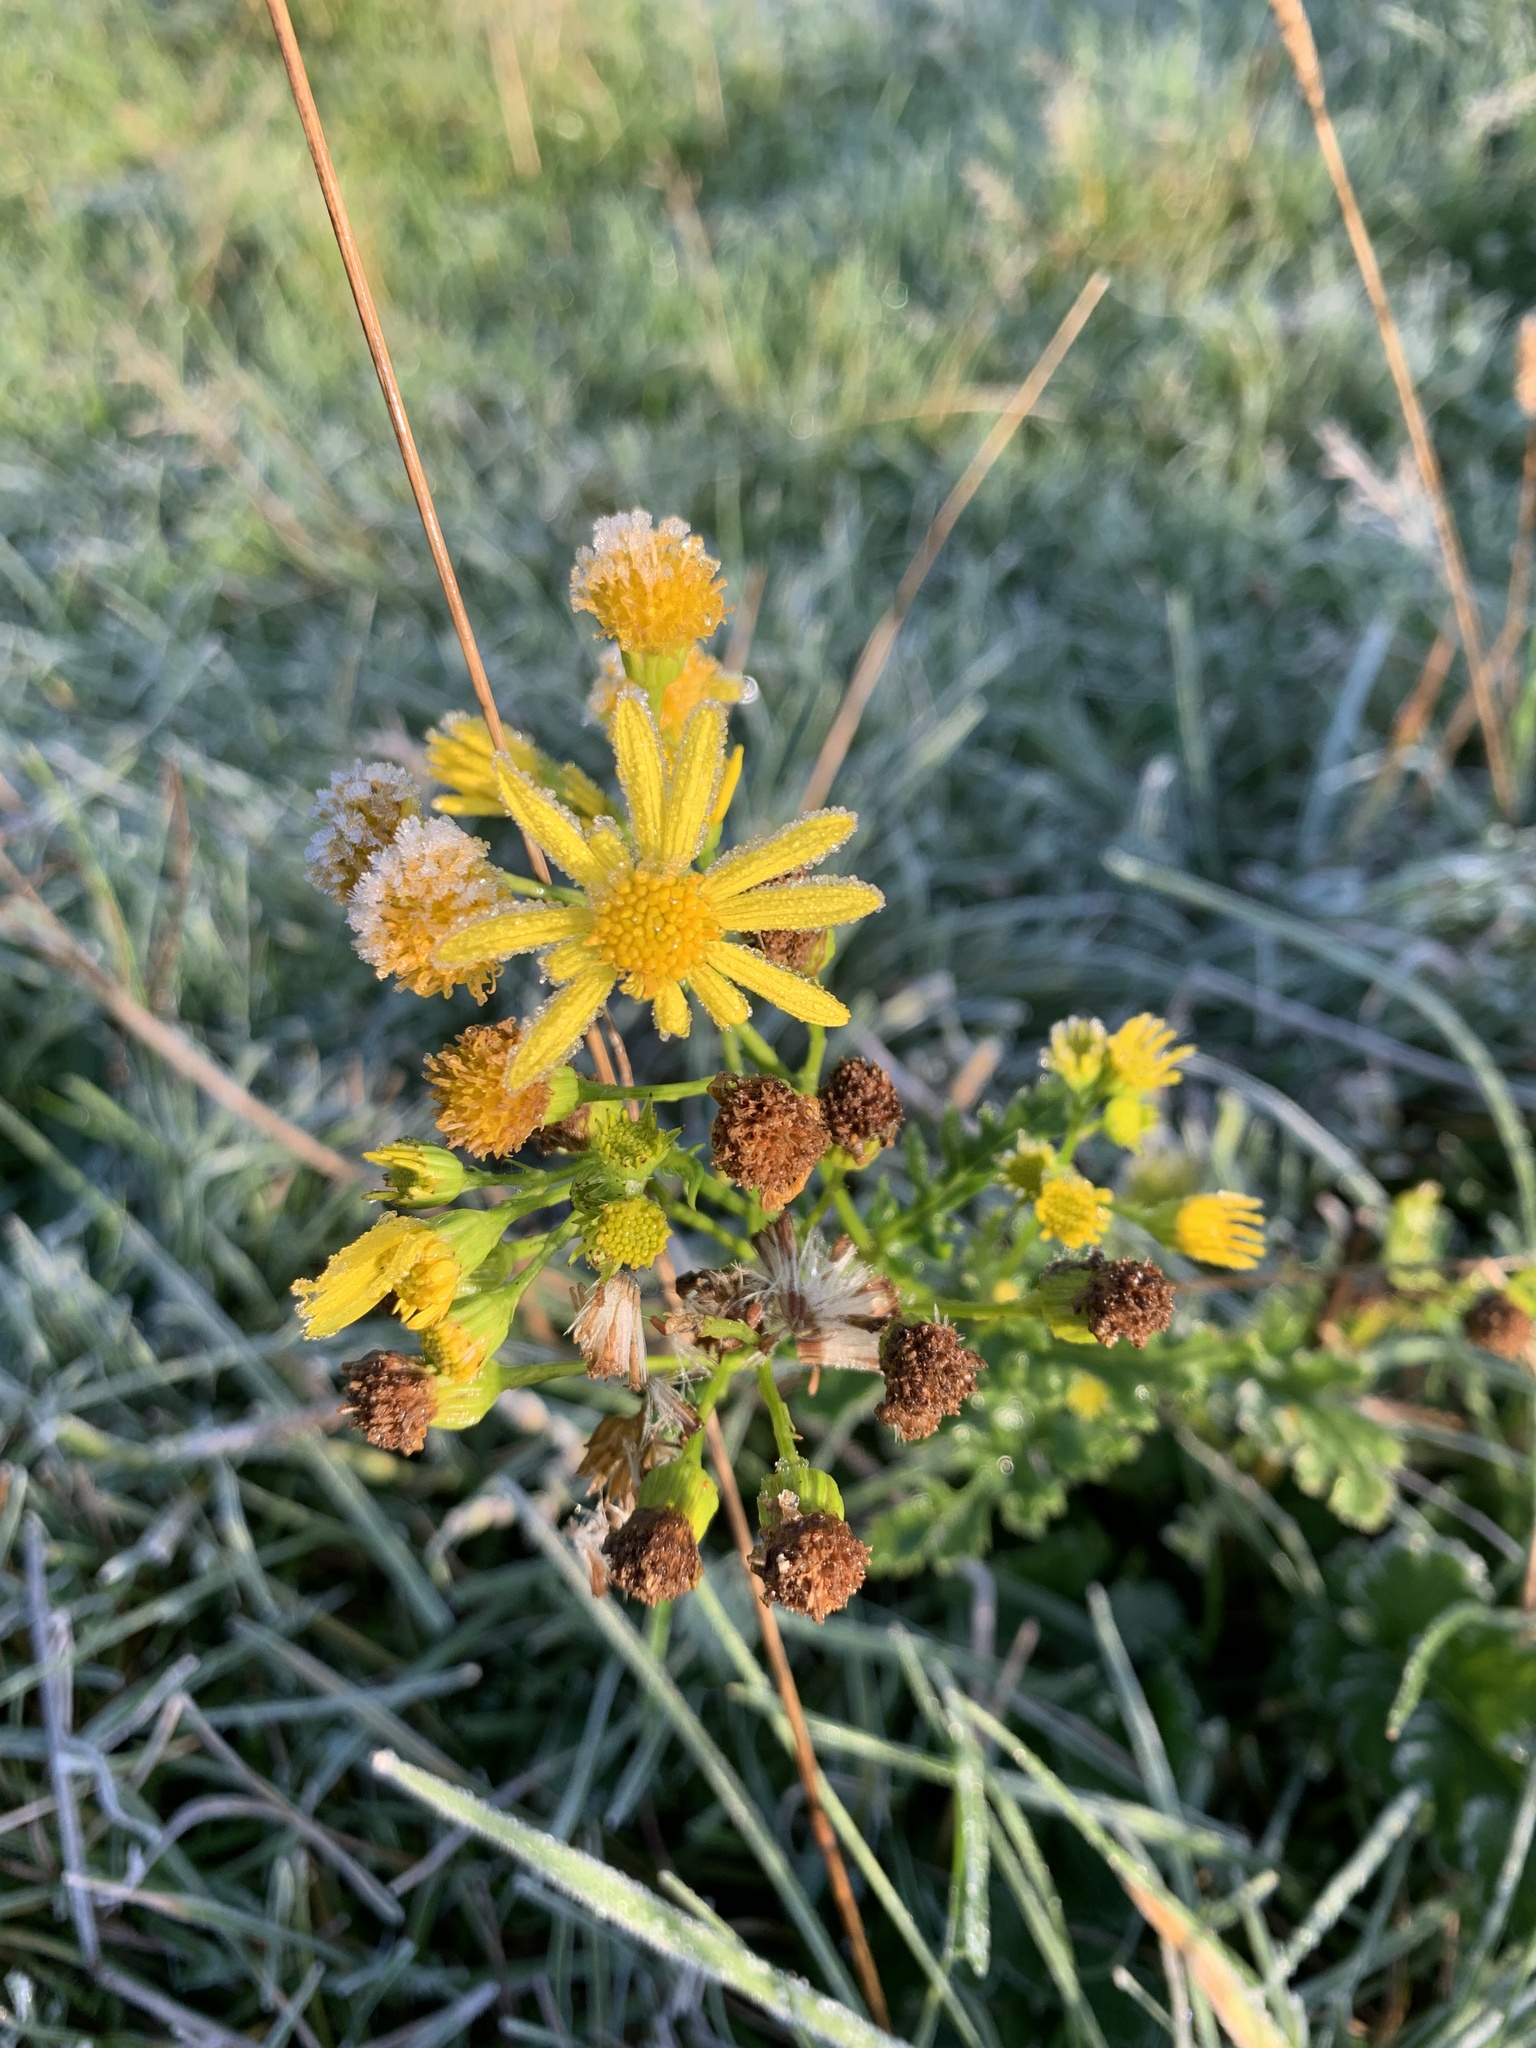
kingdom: Plantae
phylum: Tracheophyta
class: Magnoliopsida
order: Asterales
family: Asteraceae
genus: Jacobaea
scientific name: Jacobaea vulgaris
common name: Stinking willie
